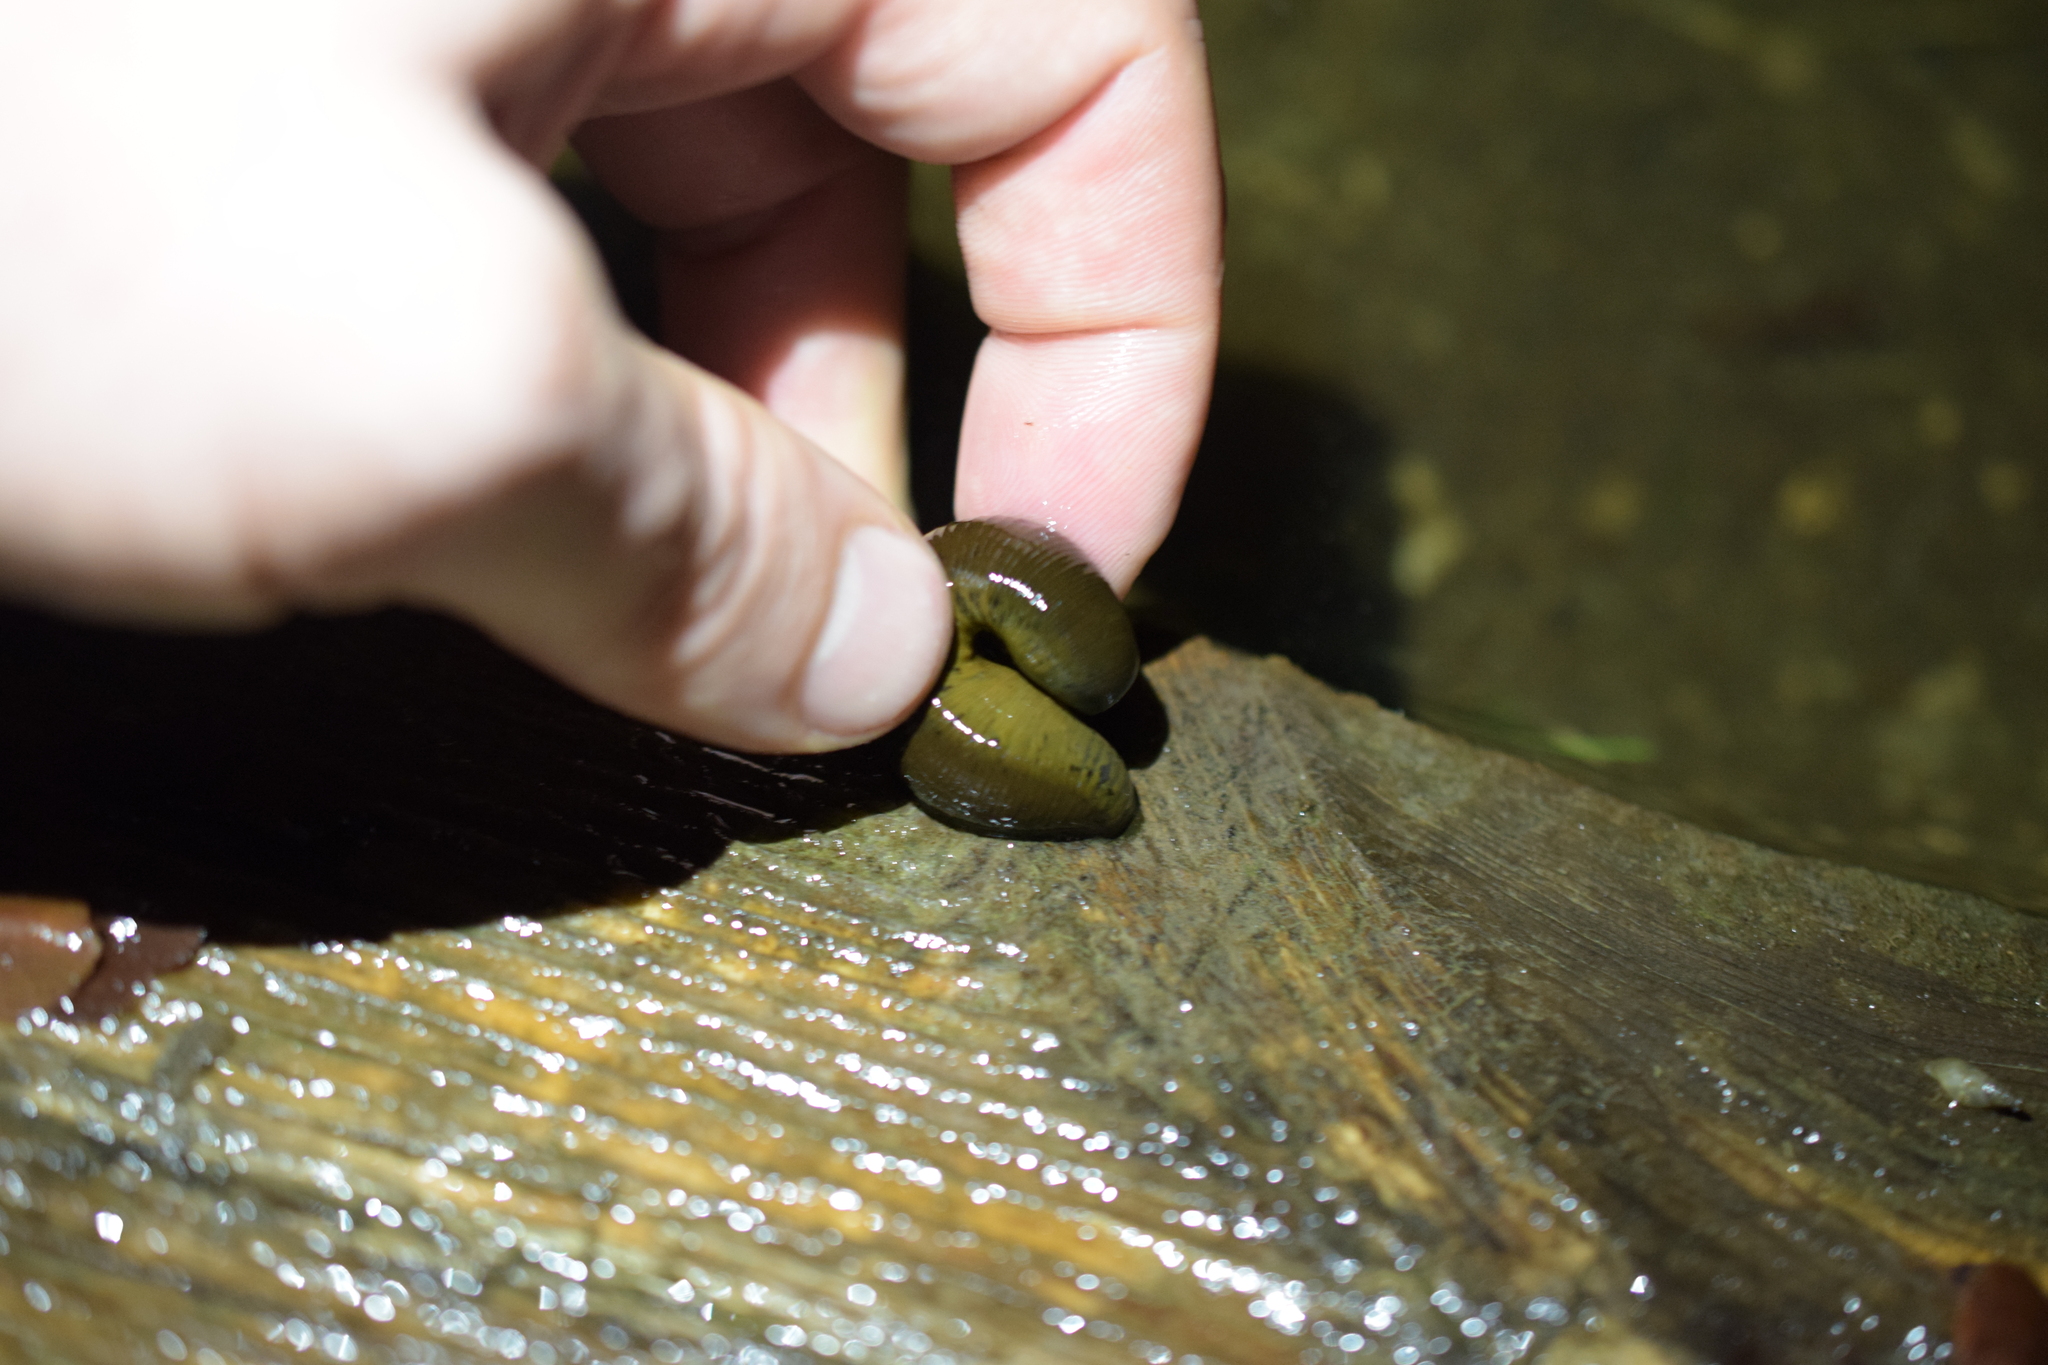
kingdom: Animalia
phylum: Annelida
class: Clitellata
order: Arhynchobdellida
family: Haemopidae
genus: Haemopis
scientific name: Haemopis sanguisuga
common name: Horse leech
